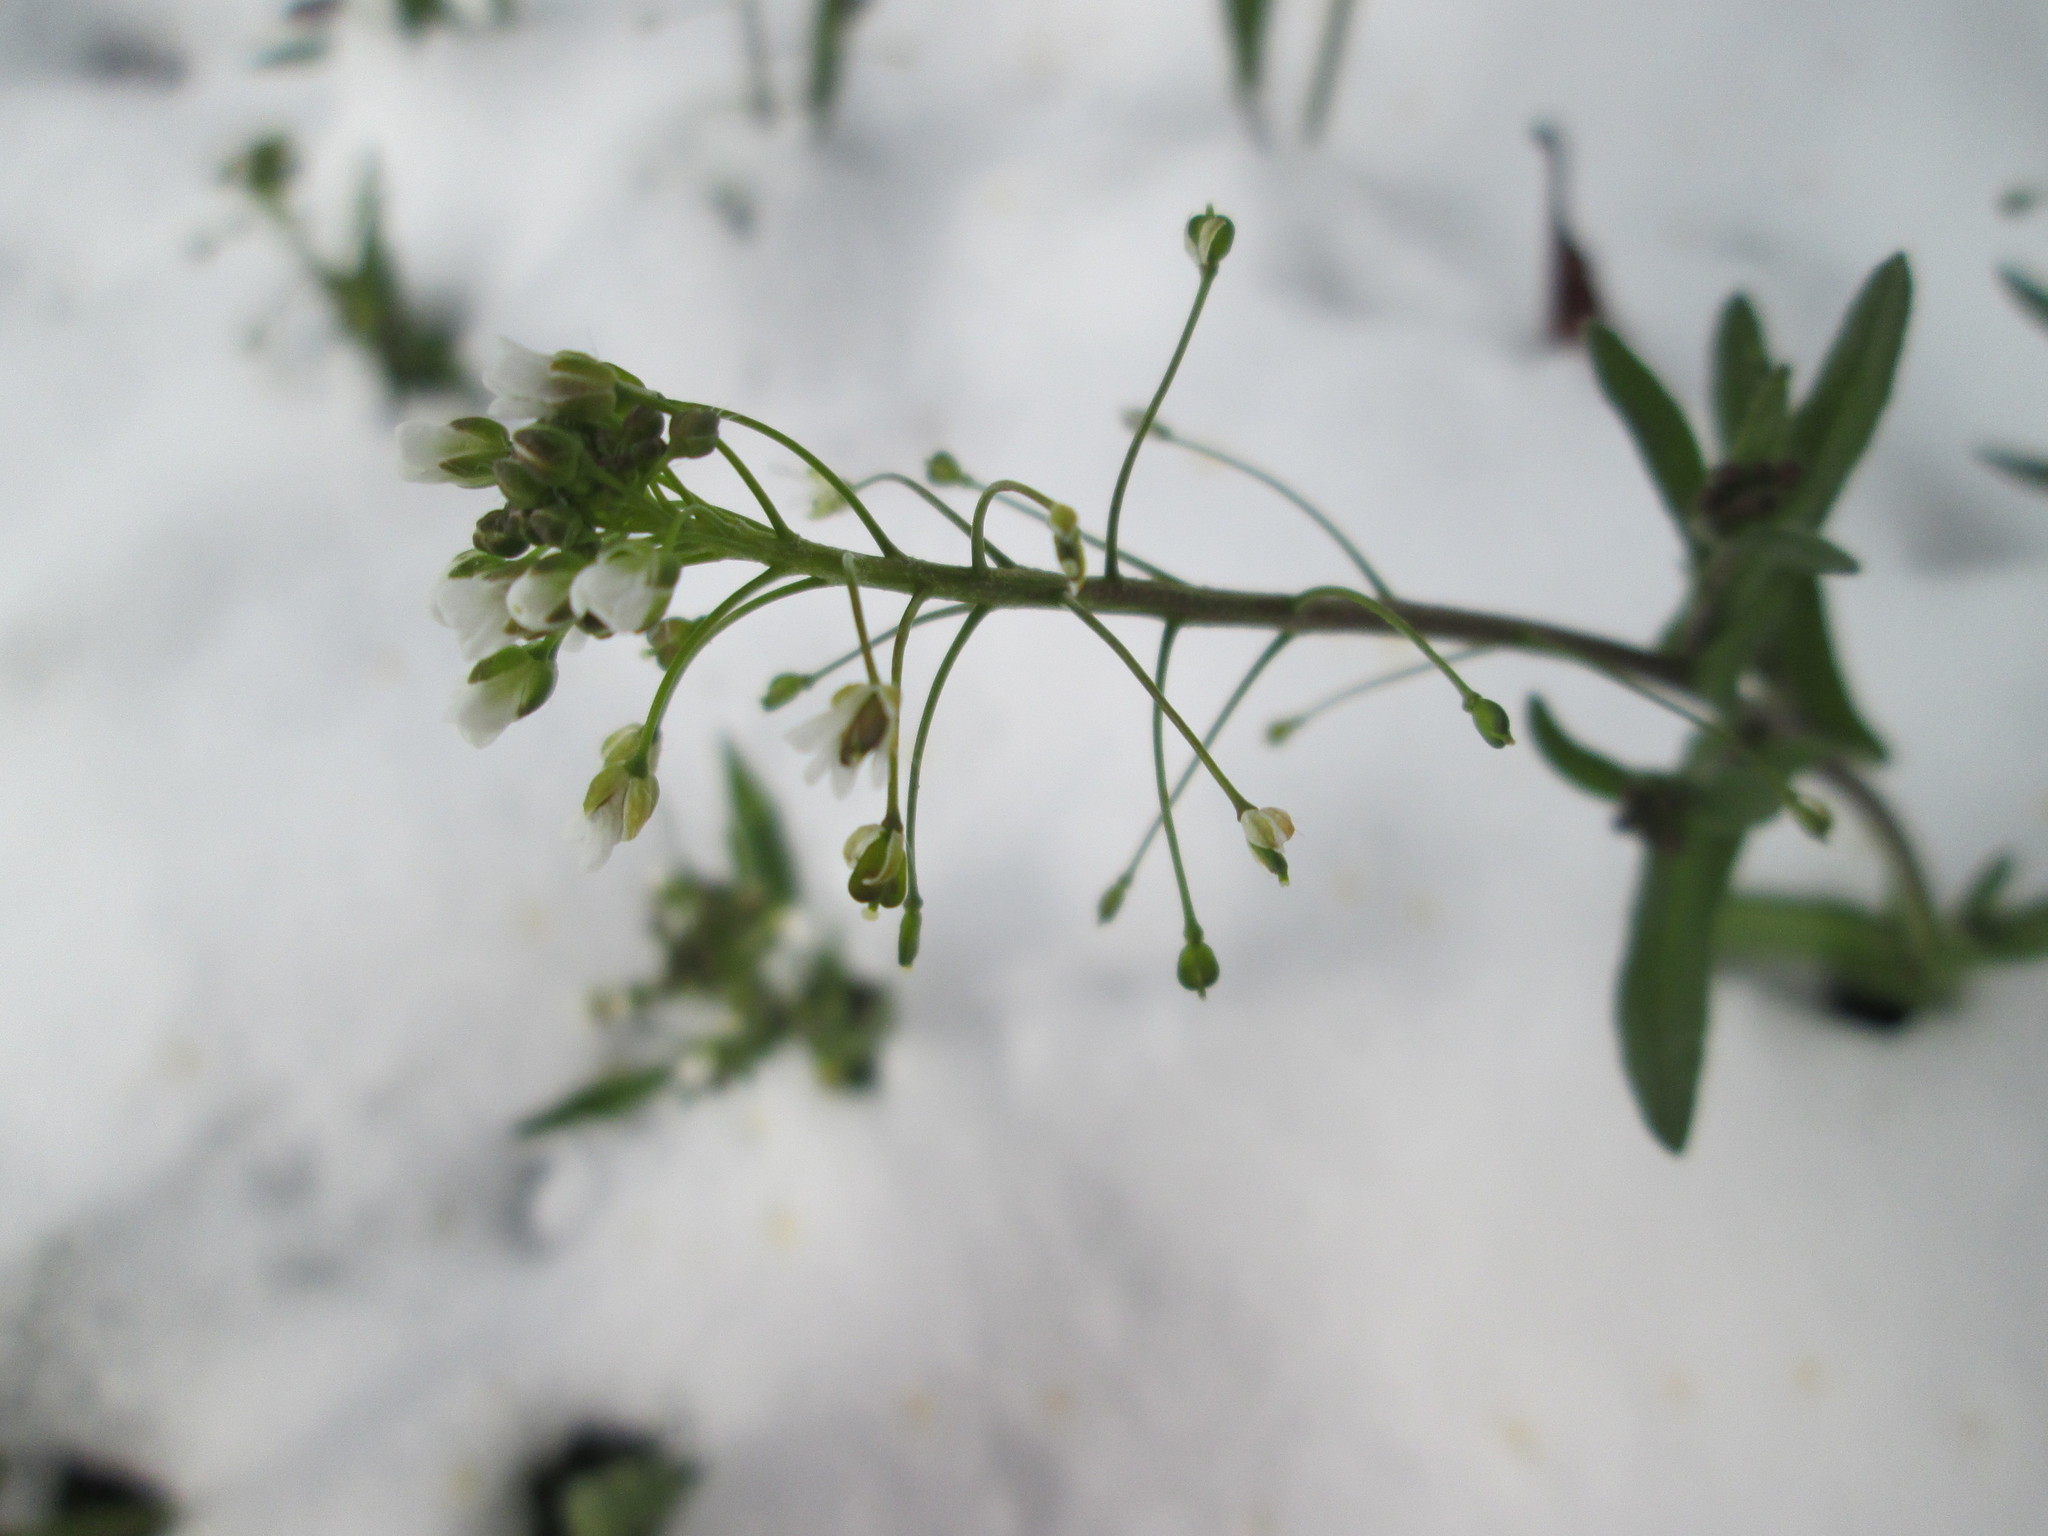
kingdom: Plantae
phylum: Tracheophyta
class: Magnoliopsida
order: Brassicales
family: Brassicaceae
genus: Capsella
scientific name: Capsella bursa-pastoris
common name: Shepherd's purse
